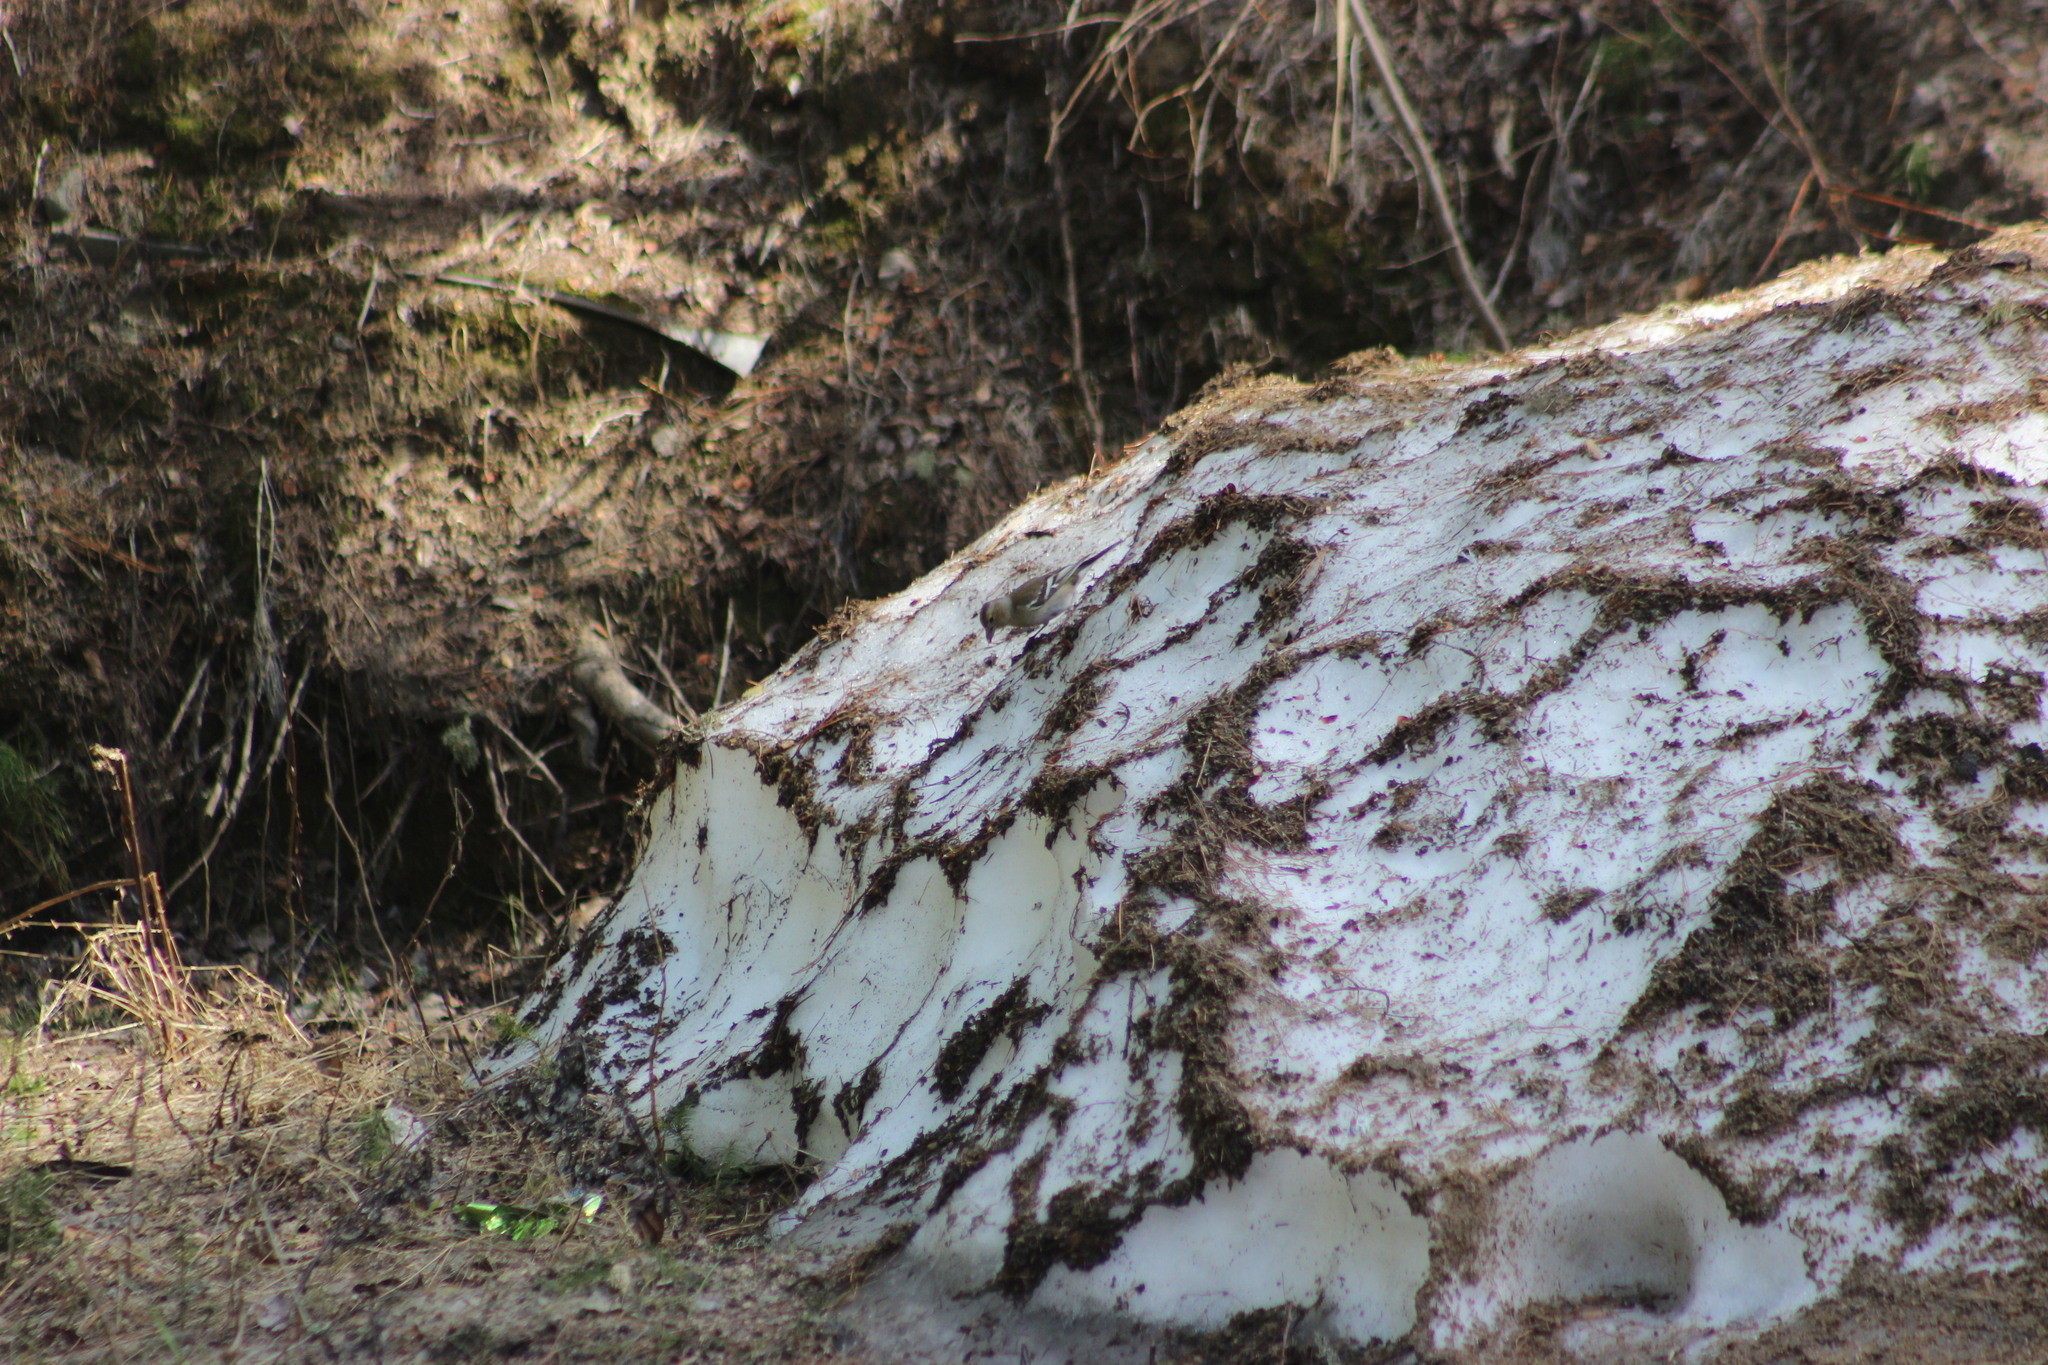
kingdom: Animalia
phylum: Chordata
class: Aves
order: Passeriformes
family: Fringillidae
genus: Fringilla
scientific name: Fringilla coelebs
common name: Common chaffinch
